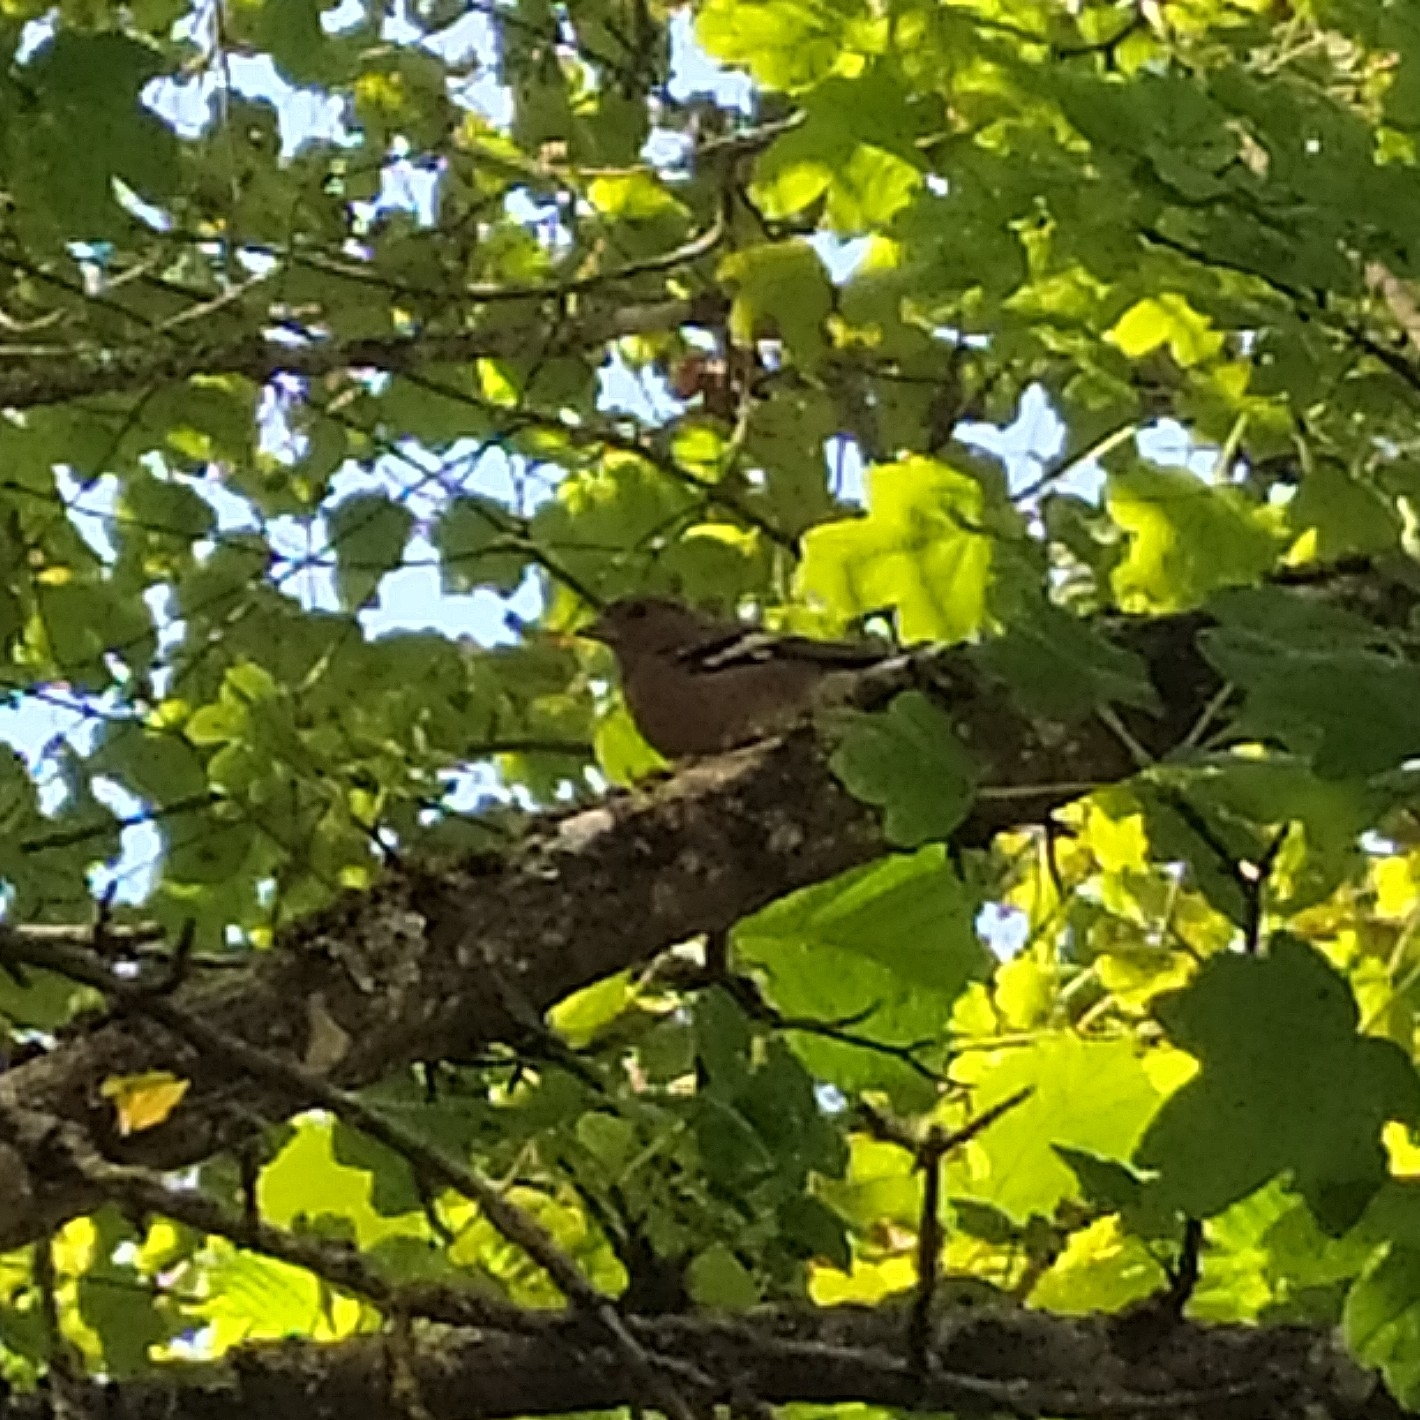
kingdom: Animalia
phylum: Chordata
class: Aves
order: Passeriformes
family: Fringillidae
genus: Fringilla
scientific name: Fringilla coelebs
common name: Common chaffinch
